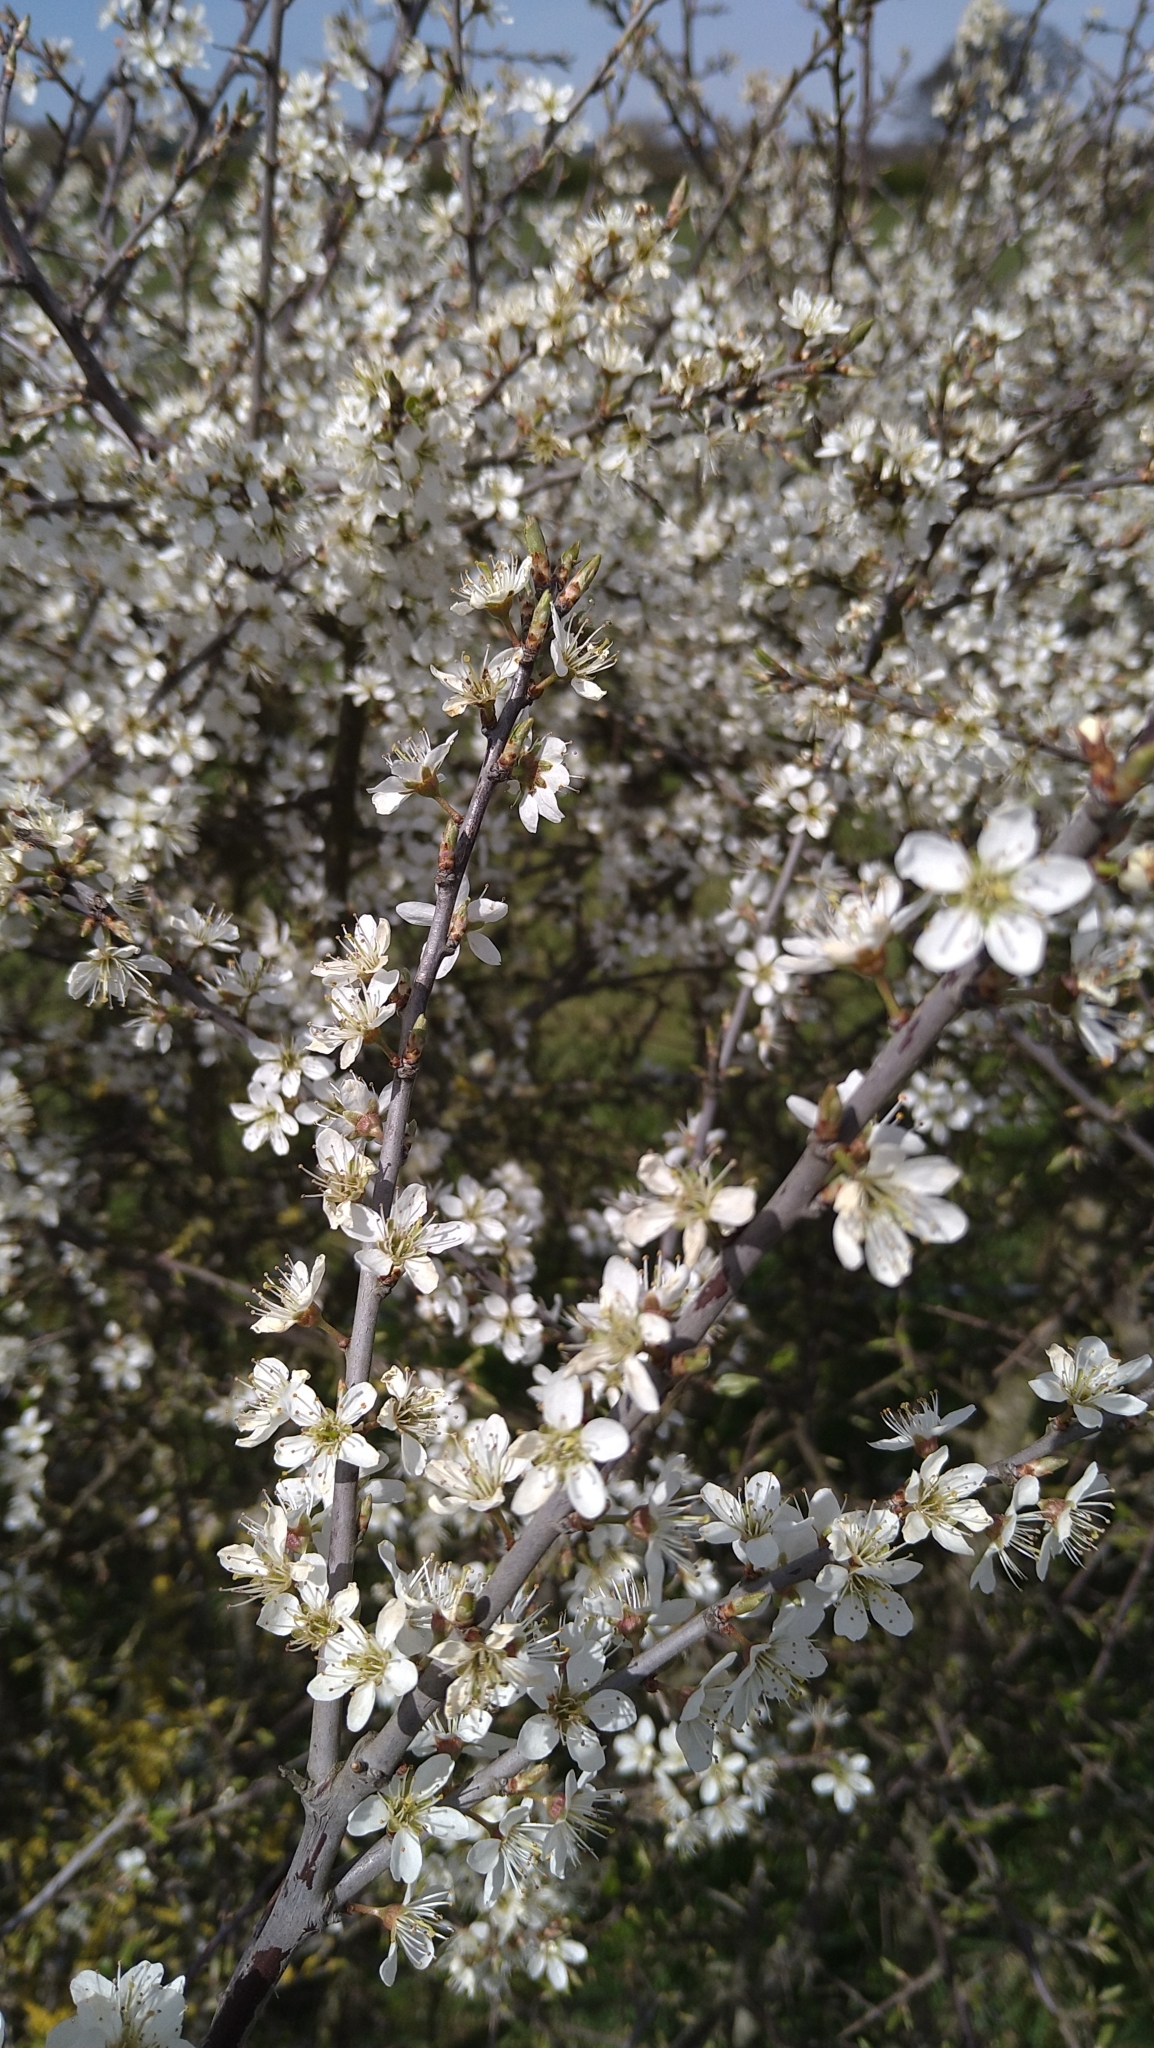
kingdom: Plantae
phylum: Tracheophyta
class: Magnoliopsida
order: Rosales
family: Rosaceae
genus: Prunus
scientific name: Prunus spinosa
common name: Blackthorn
